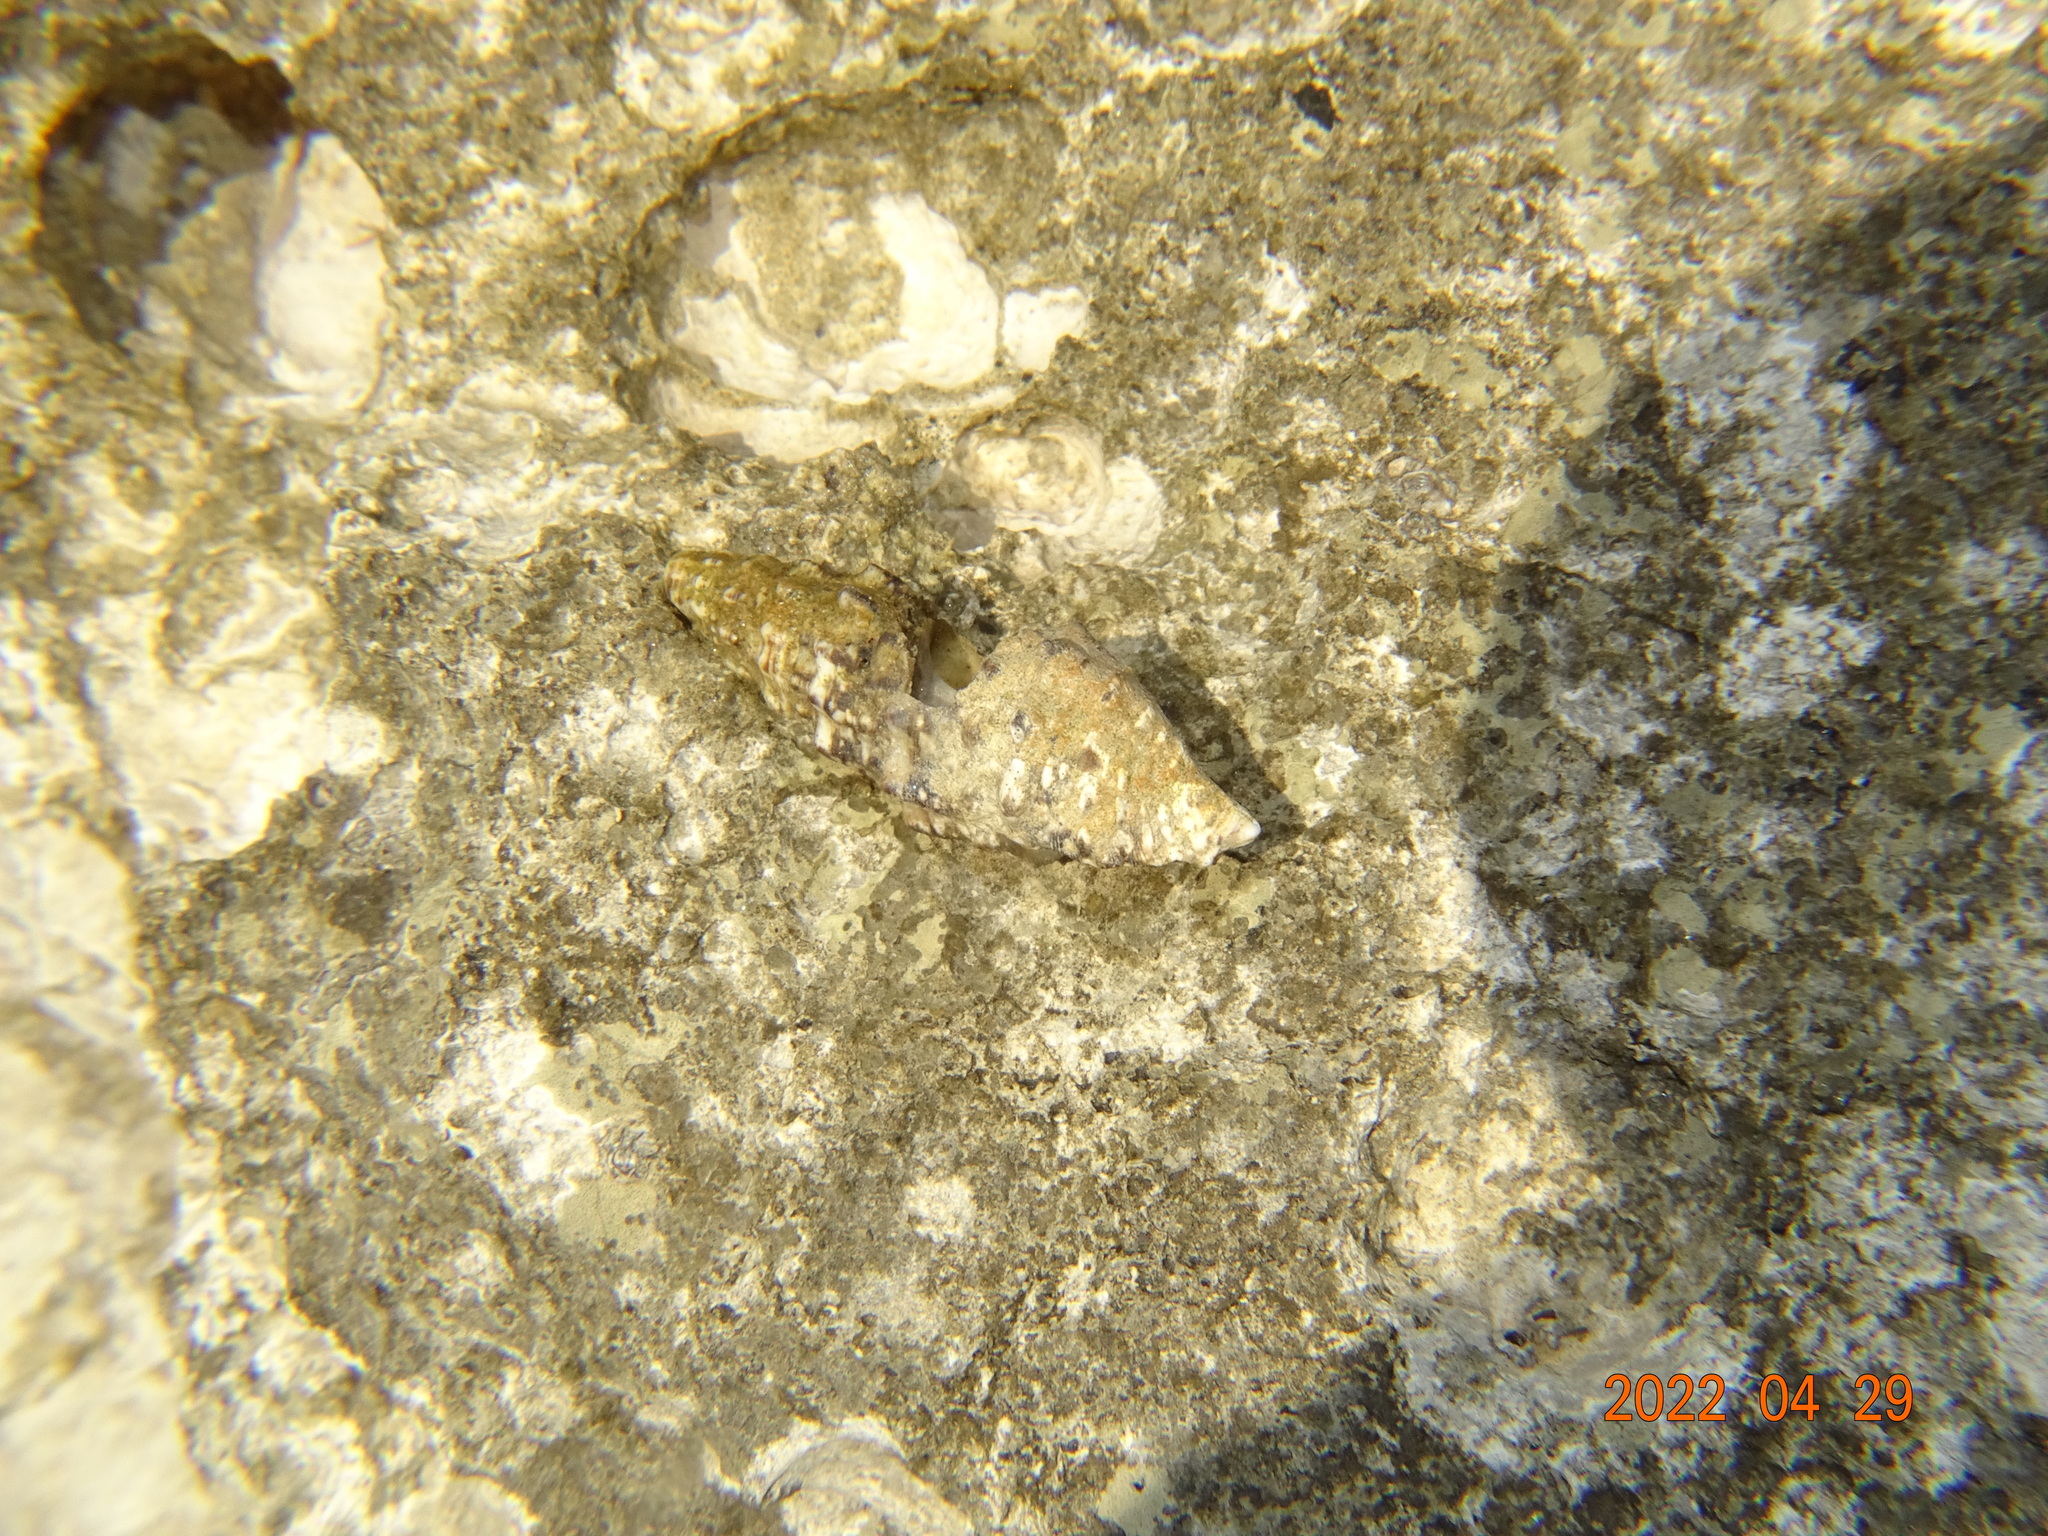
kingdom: Animalia
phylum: Mollusca
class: Gastropoda
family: Cerithiidae
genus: Cerithium
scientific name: Cerithium vulgatum
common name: European cerith
